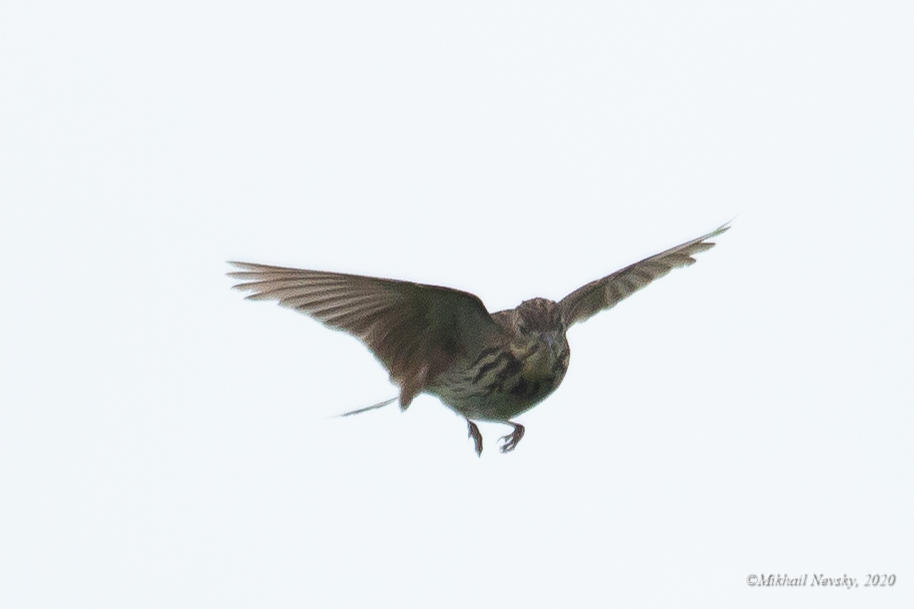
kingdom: Animalia
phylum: Chordata
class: Aves
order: Passeriformes
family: Motacillidae
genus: Anthus
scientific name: Anthus trivialis
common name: Tree pipit
